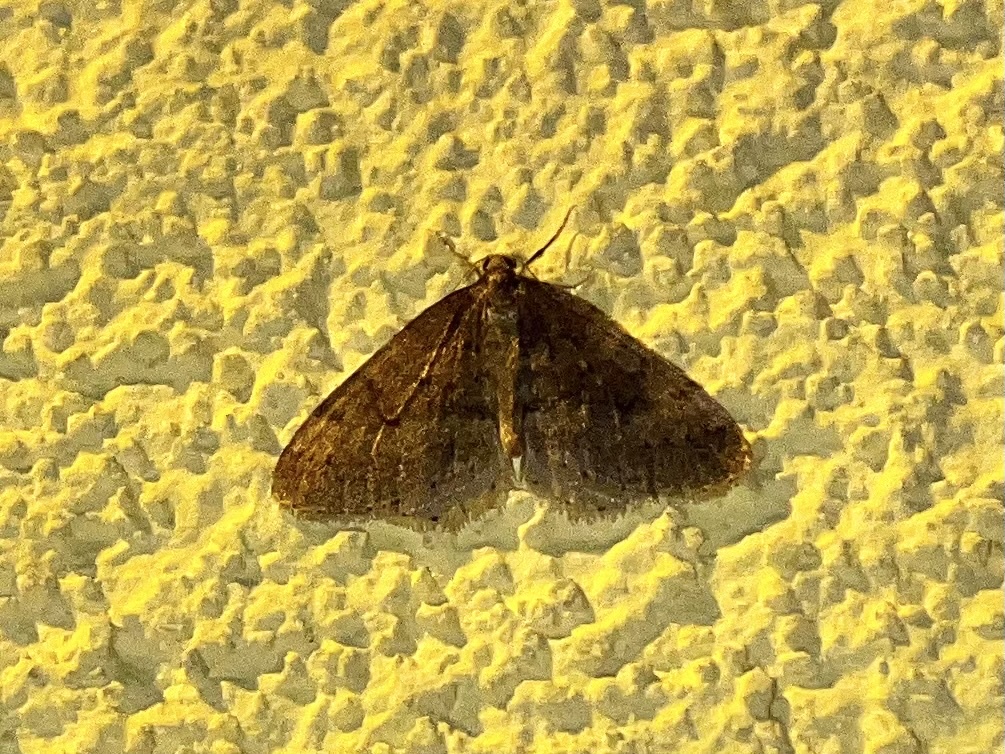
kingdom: Animalia
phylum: Arthropoda
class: Insecta
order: Lepidoptera
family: Geometridae
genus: Operophtera
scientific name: Operophtera brumata
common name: Winter moth
